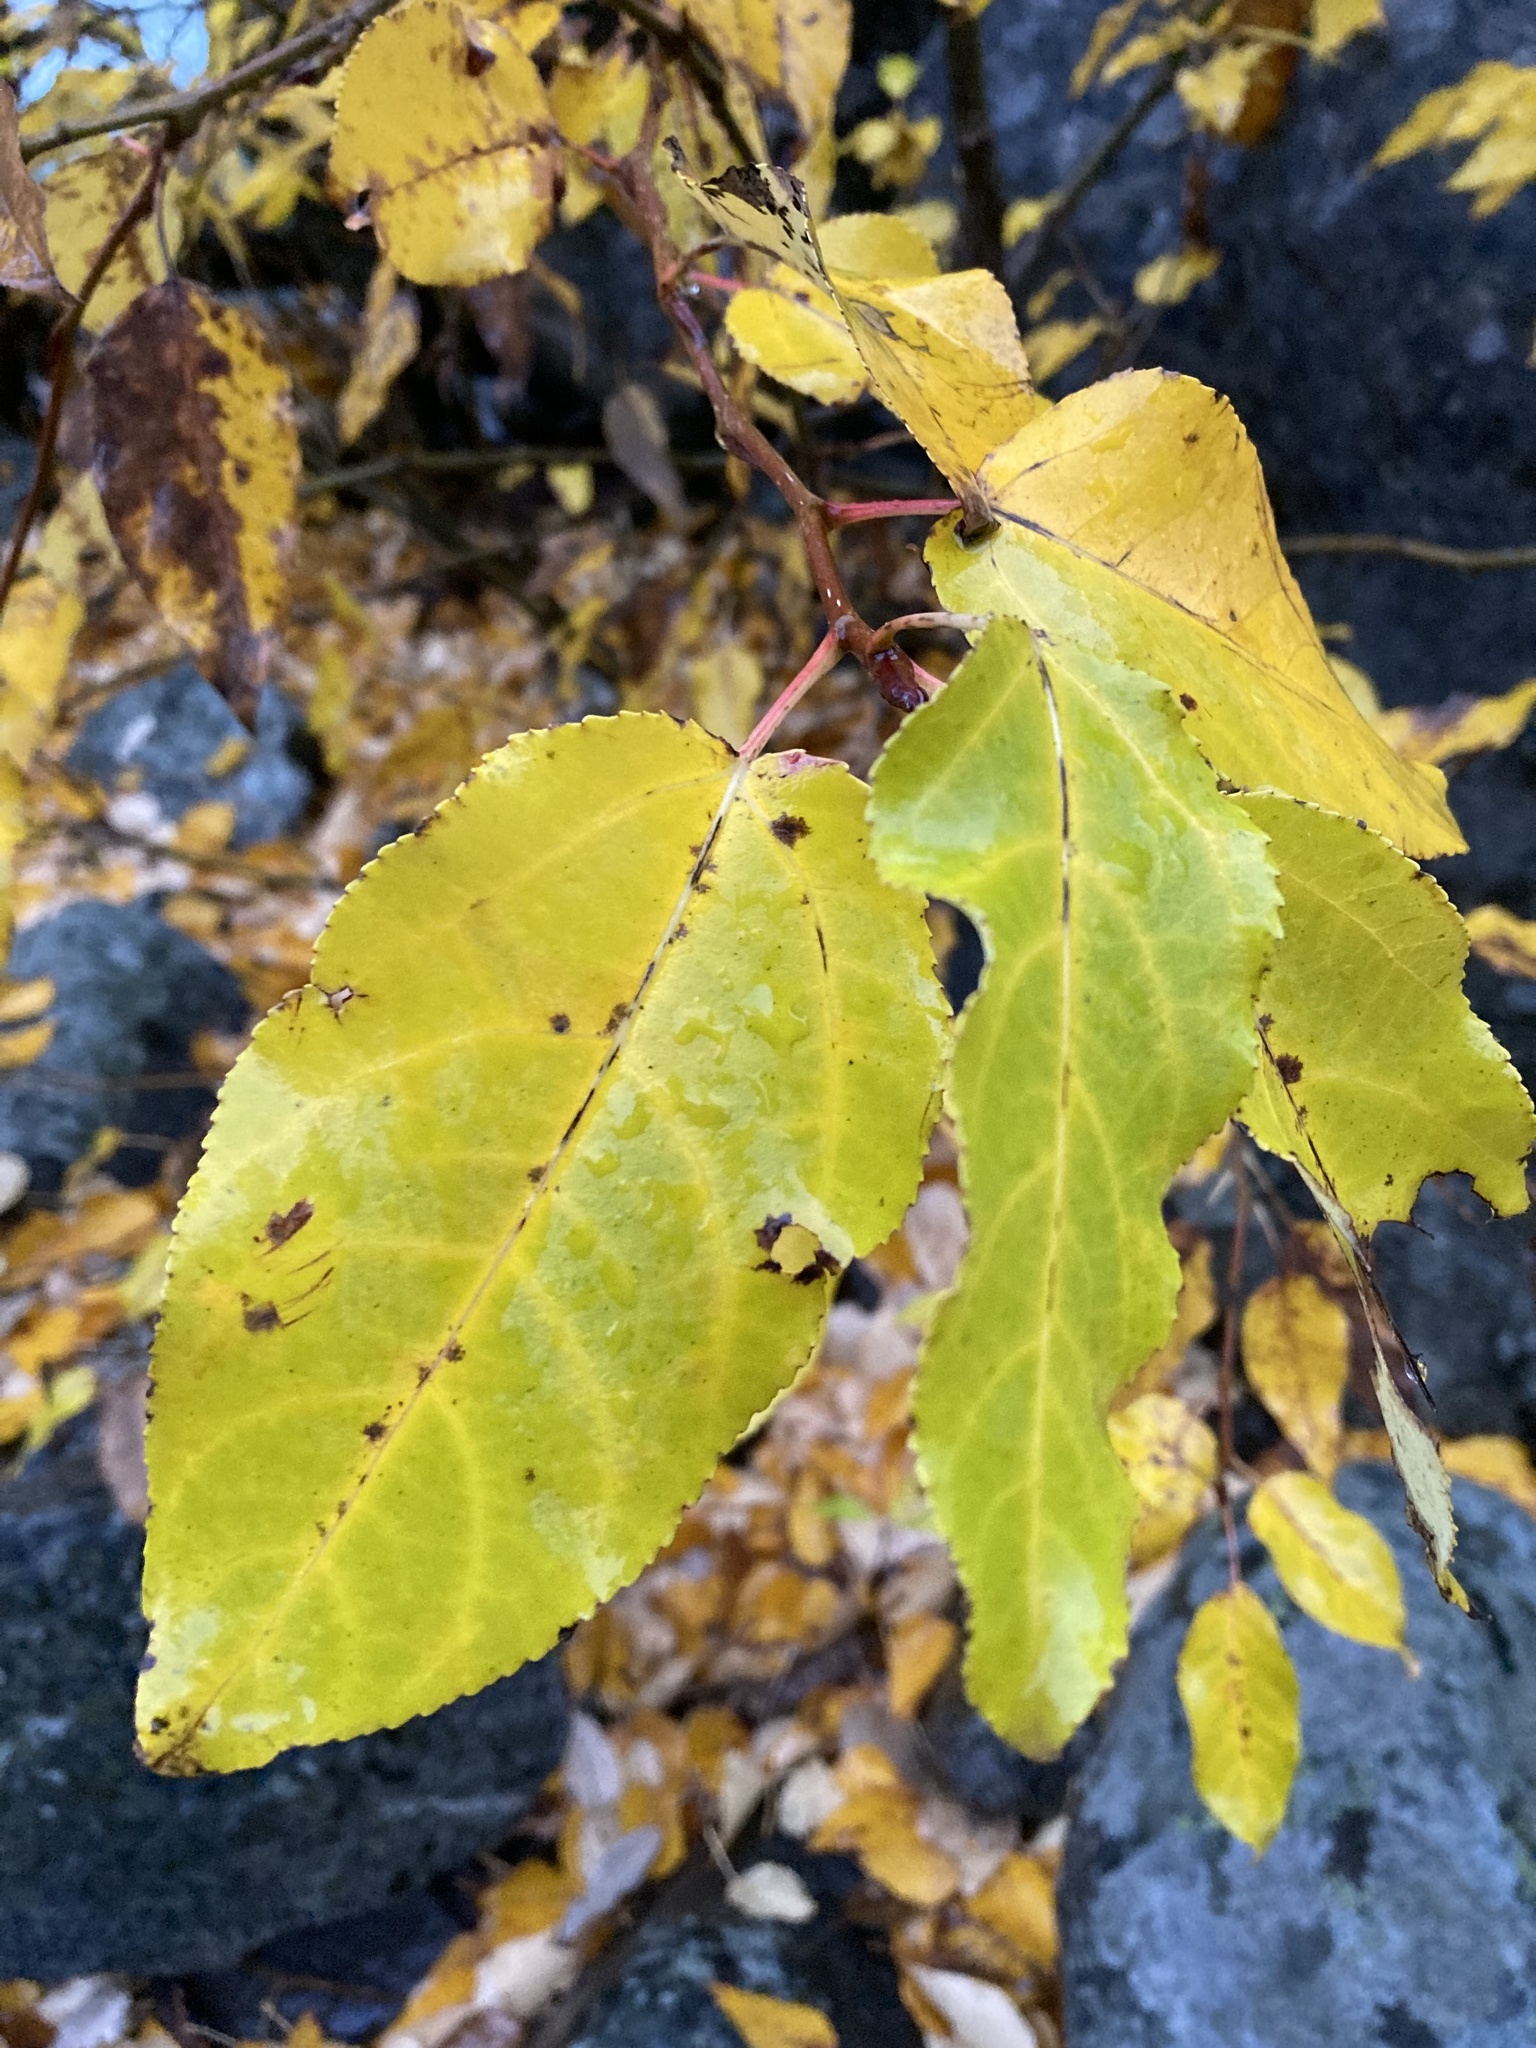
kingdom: Plantae
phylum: Tracheophyta
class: Magnoliopsida
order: Malpighiales
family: Salicaceae
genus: Populus
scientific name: Populus trichocarpa
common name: Black cottonwood
